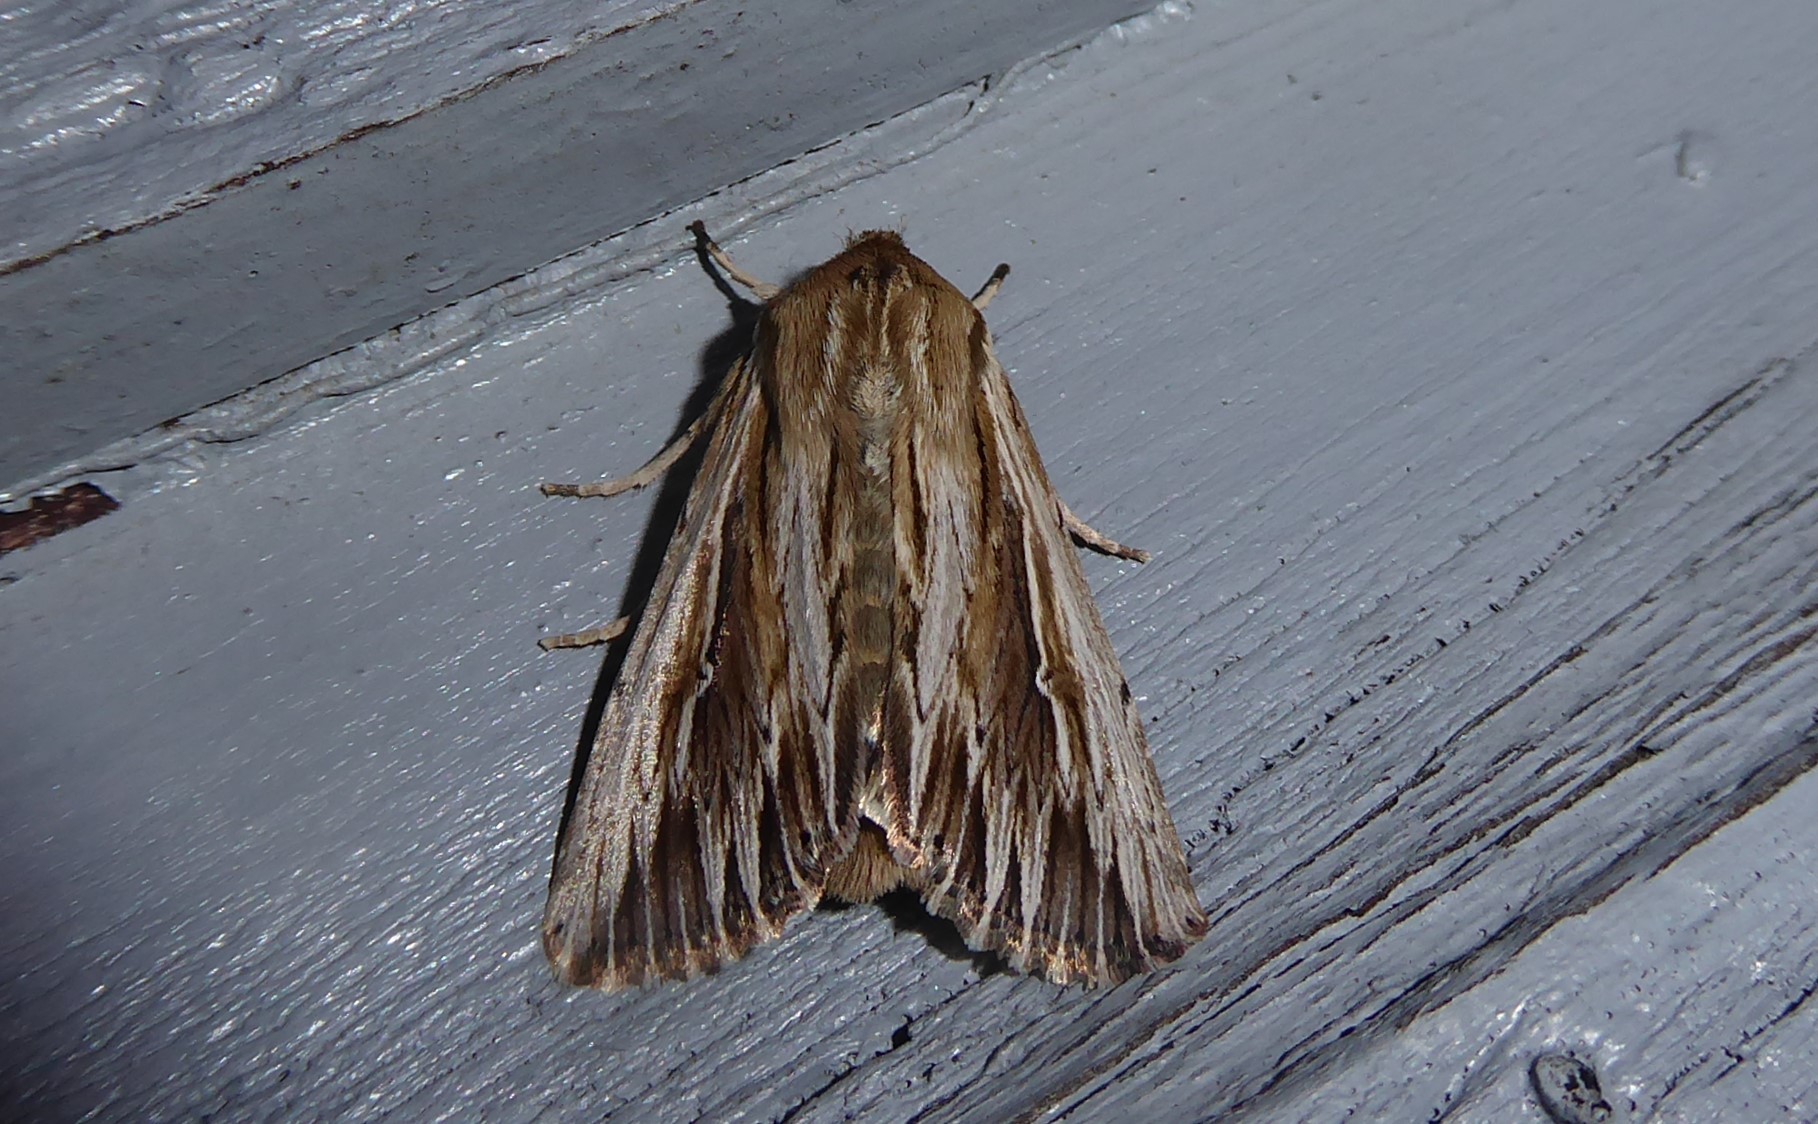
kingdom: Animalia
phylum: Arthropoda
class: Insecta
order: Lepidoptera
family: Noctuidae
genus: Persectania
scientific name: Persectania aversa
